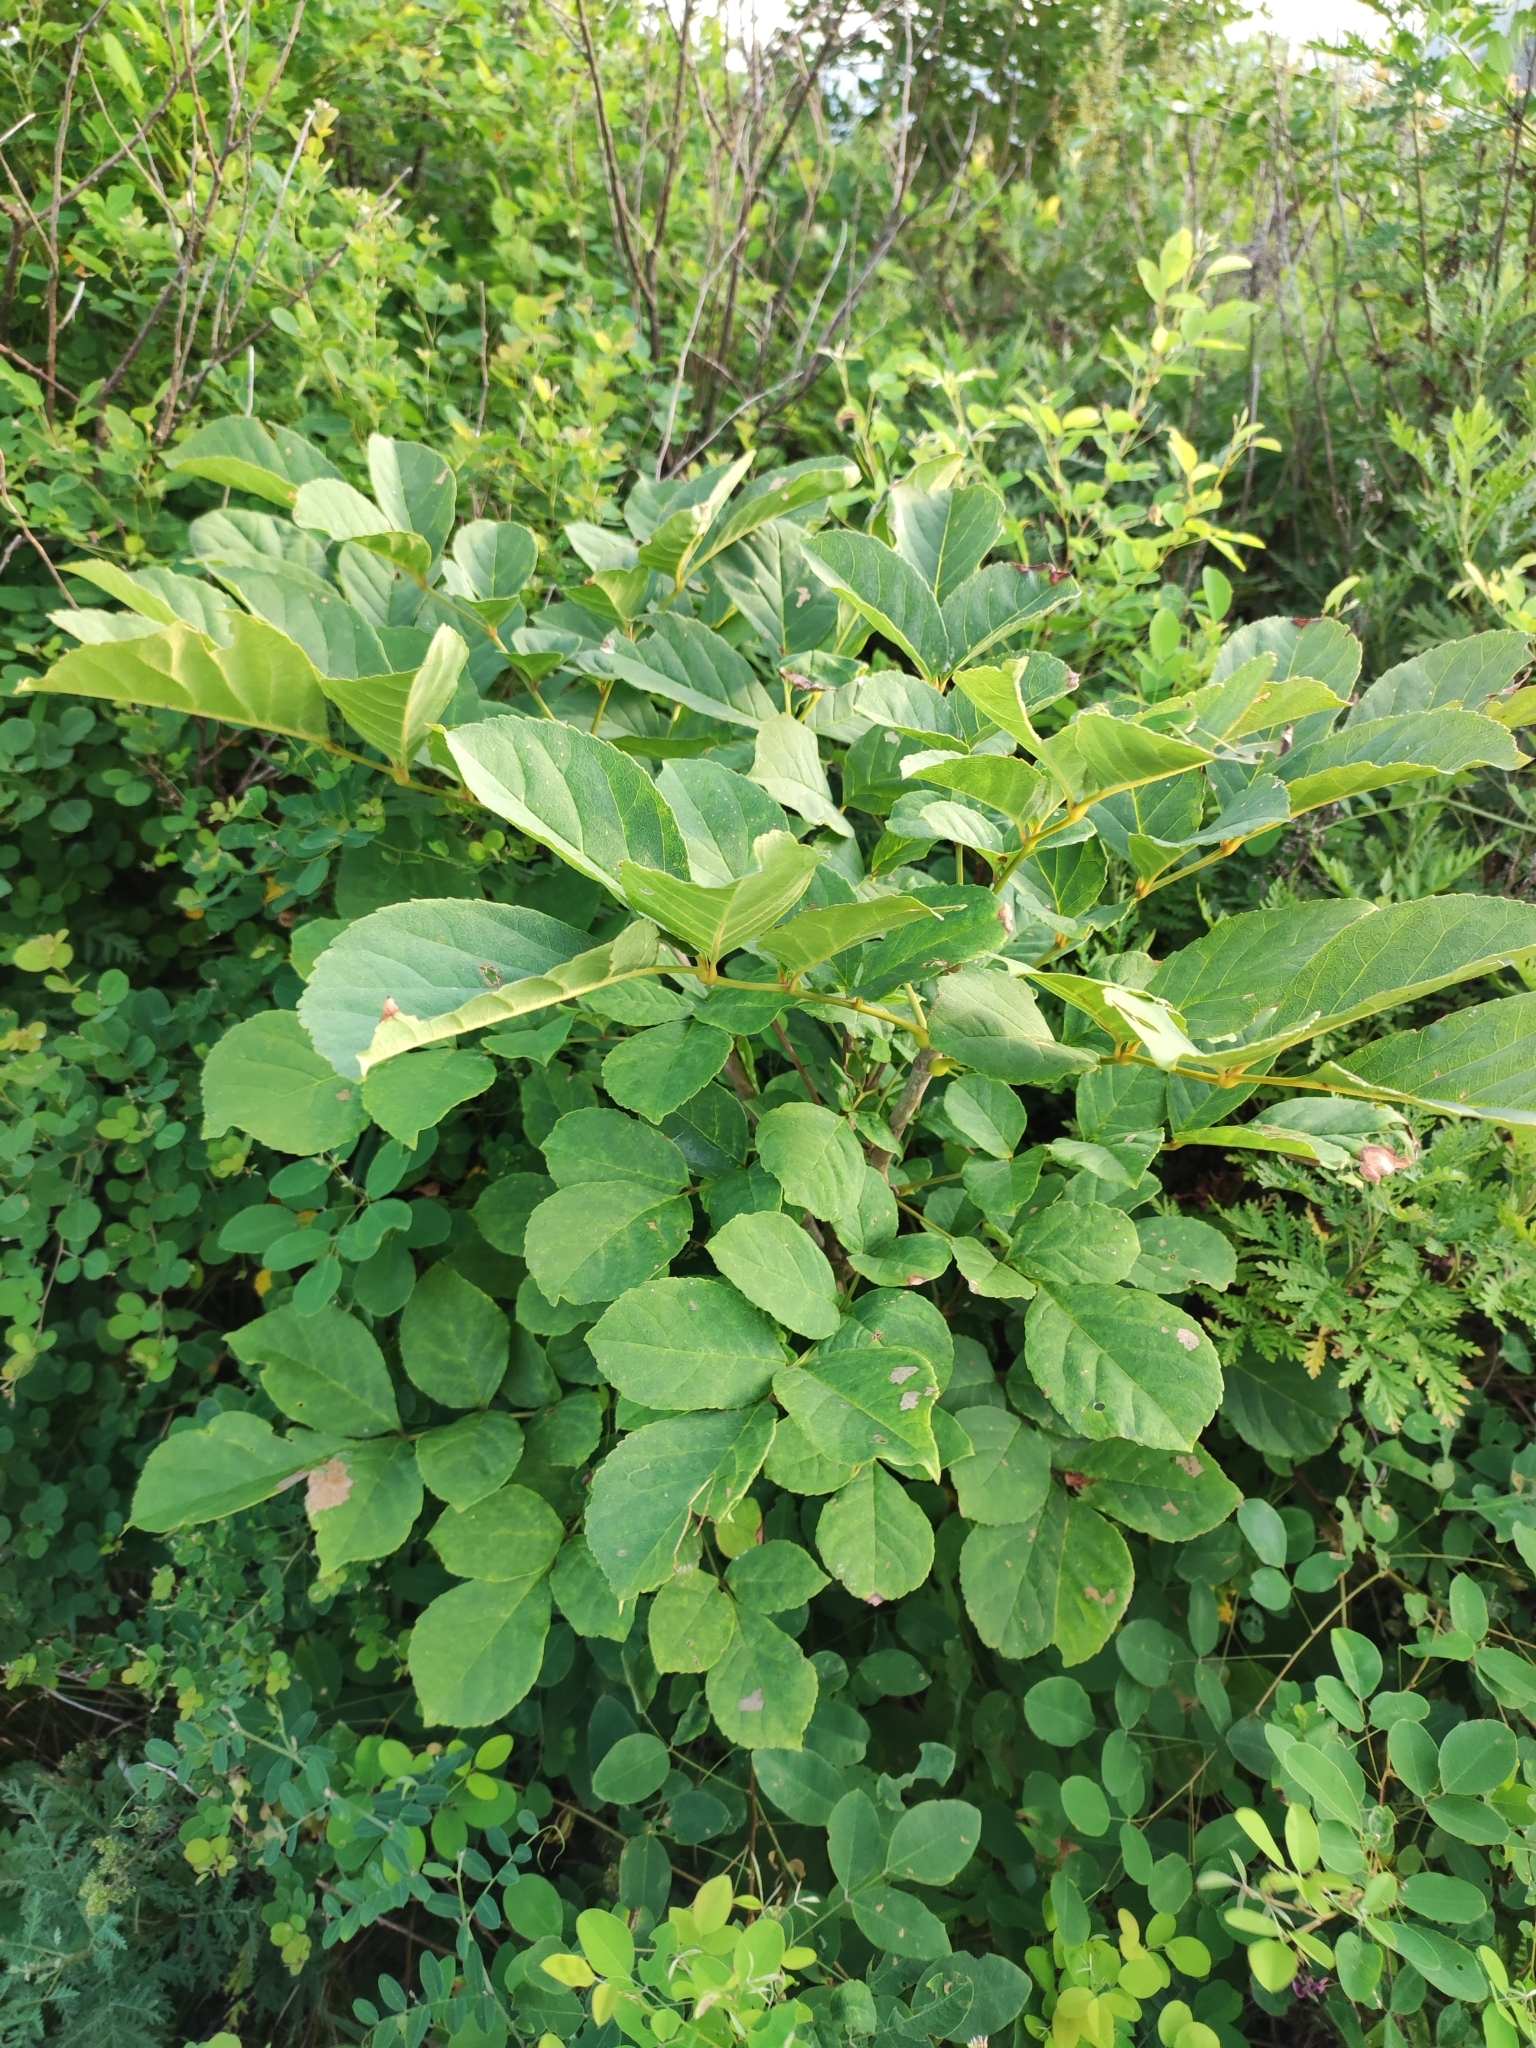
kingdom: Plantae
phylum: Tracheophyta
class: Magnoliopsida
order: Lamiales
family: Oleaceae
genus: Fraxinus
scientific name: Fraxinus chinensis
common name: Chinese ash
